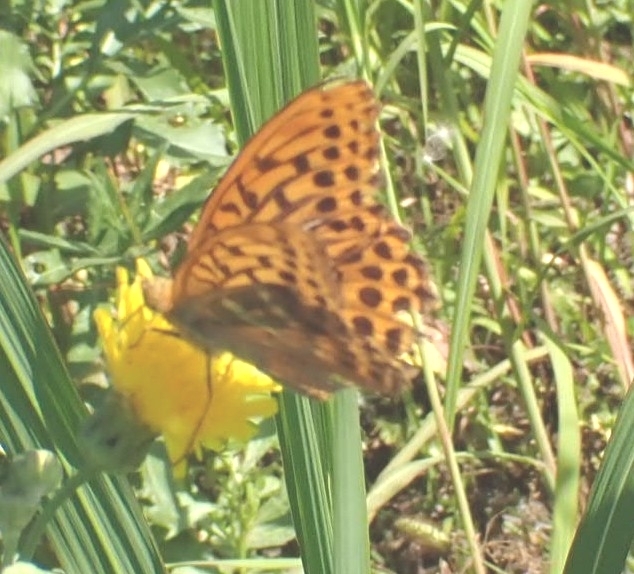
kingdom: Animalia
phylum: Arthropoda
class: Insecta
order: Lepidoptera
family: Nymphalidae
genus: Argynnis
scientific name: Argynnis paphia
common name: Silver-washed fritillary
